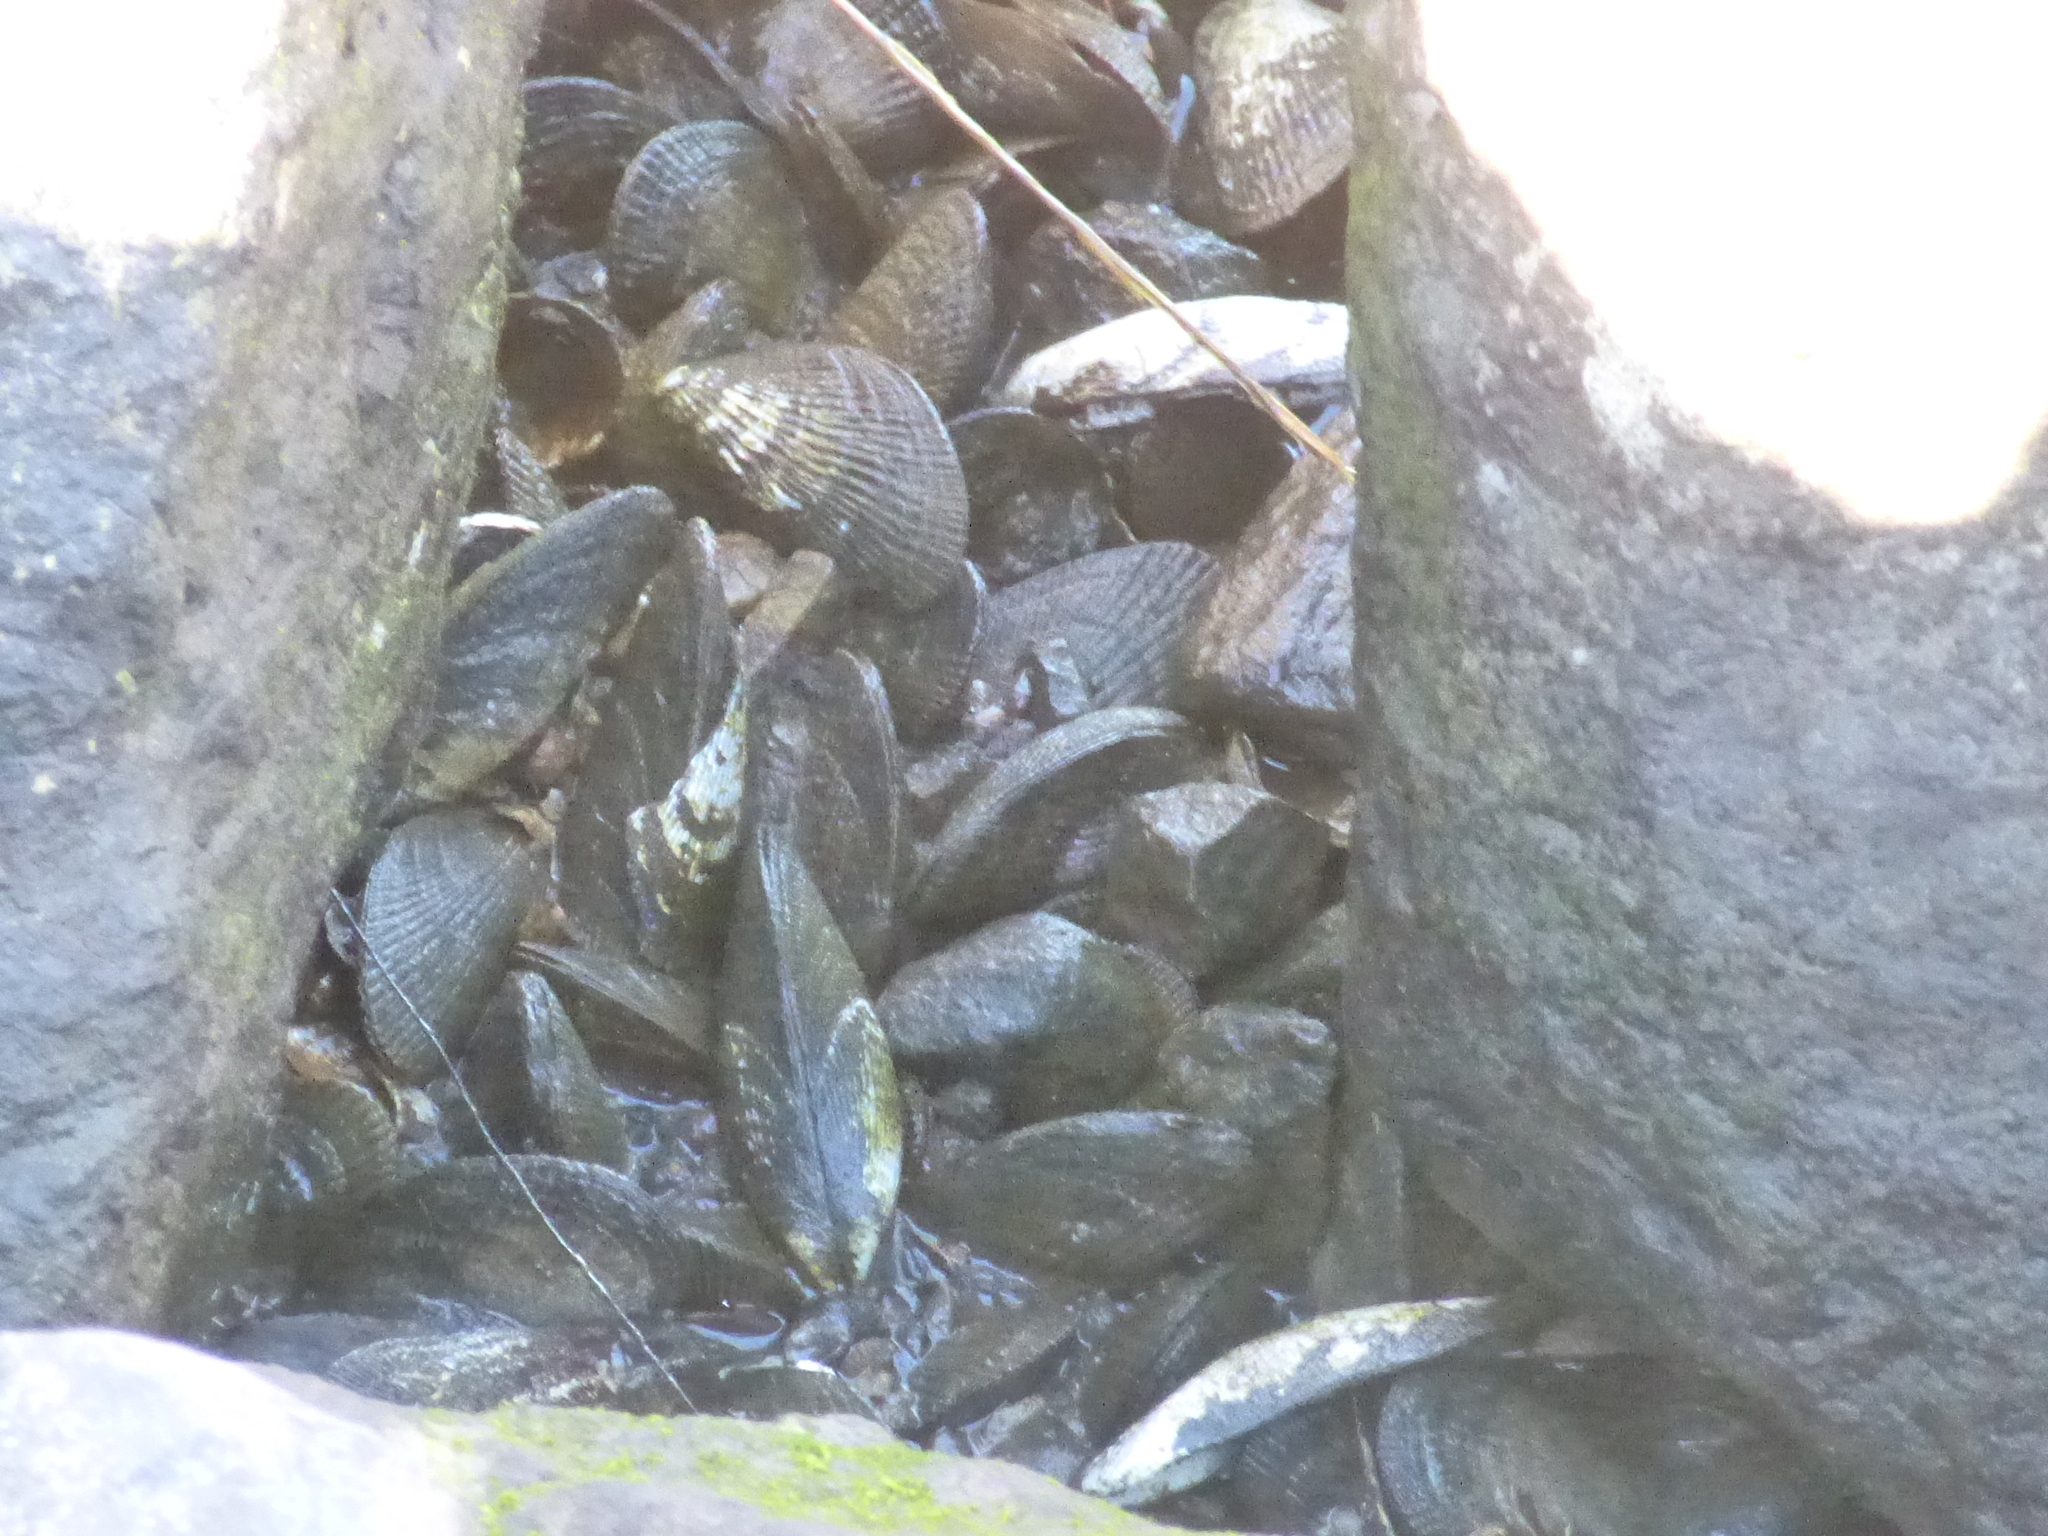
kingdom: Animalia
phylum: Mollusca
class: Bivalvia
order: Mytilida
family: Mytilidae
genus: Geukensia
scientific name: Geukensia demissa
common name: Ribbed mussel
